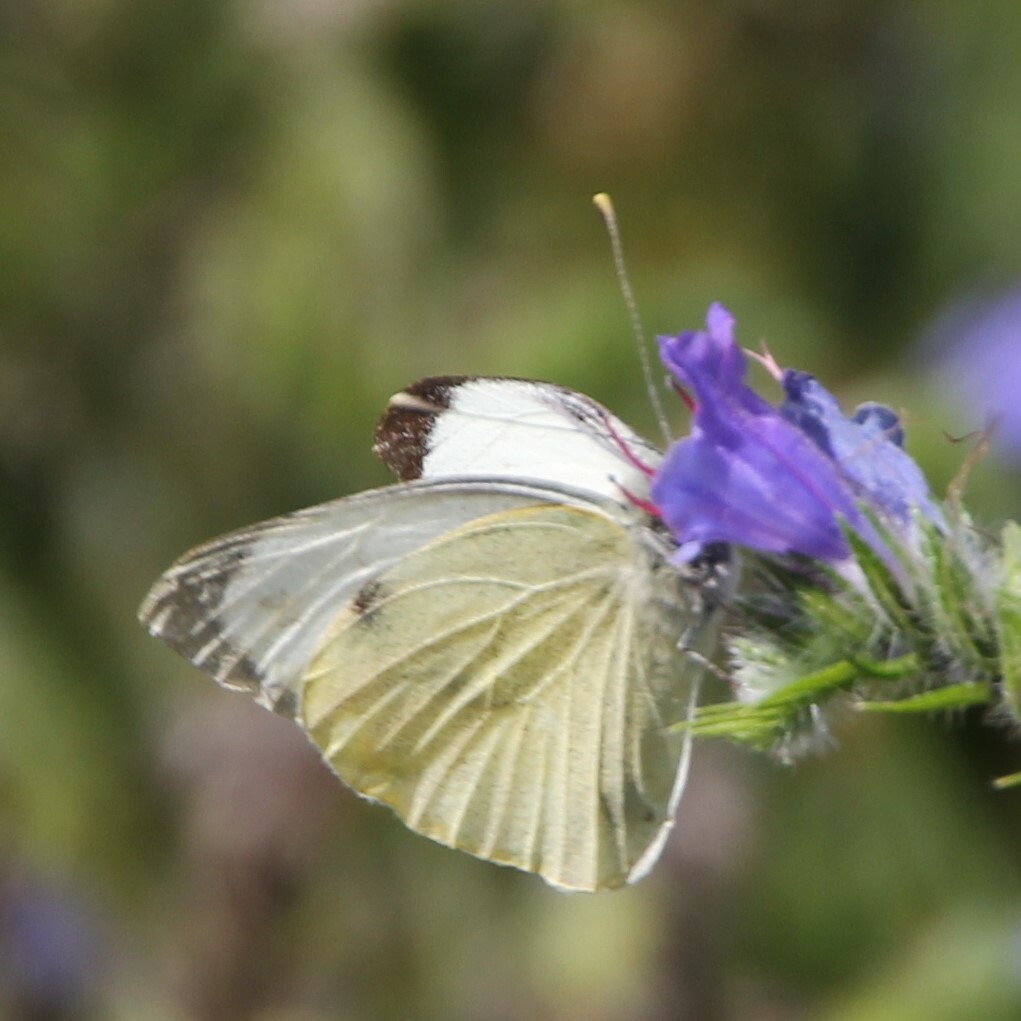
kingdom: Animalia
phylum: Arthropoda
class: Insecta
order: Lepidoptera
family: Pieridae
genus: Pieris
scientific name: Pieris brassicae
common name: Large white
